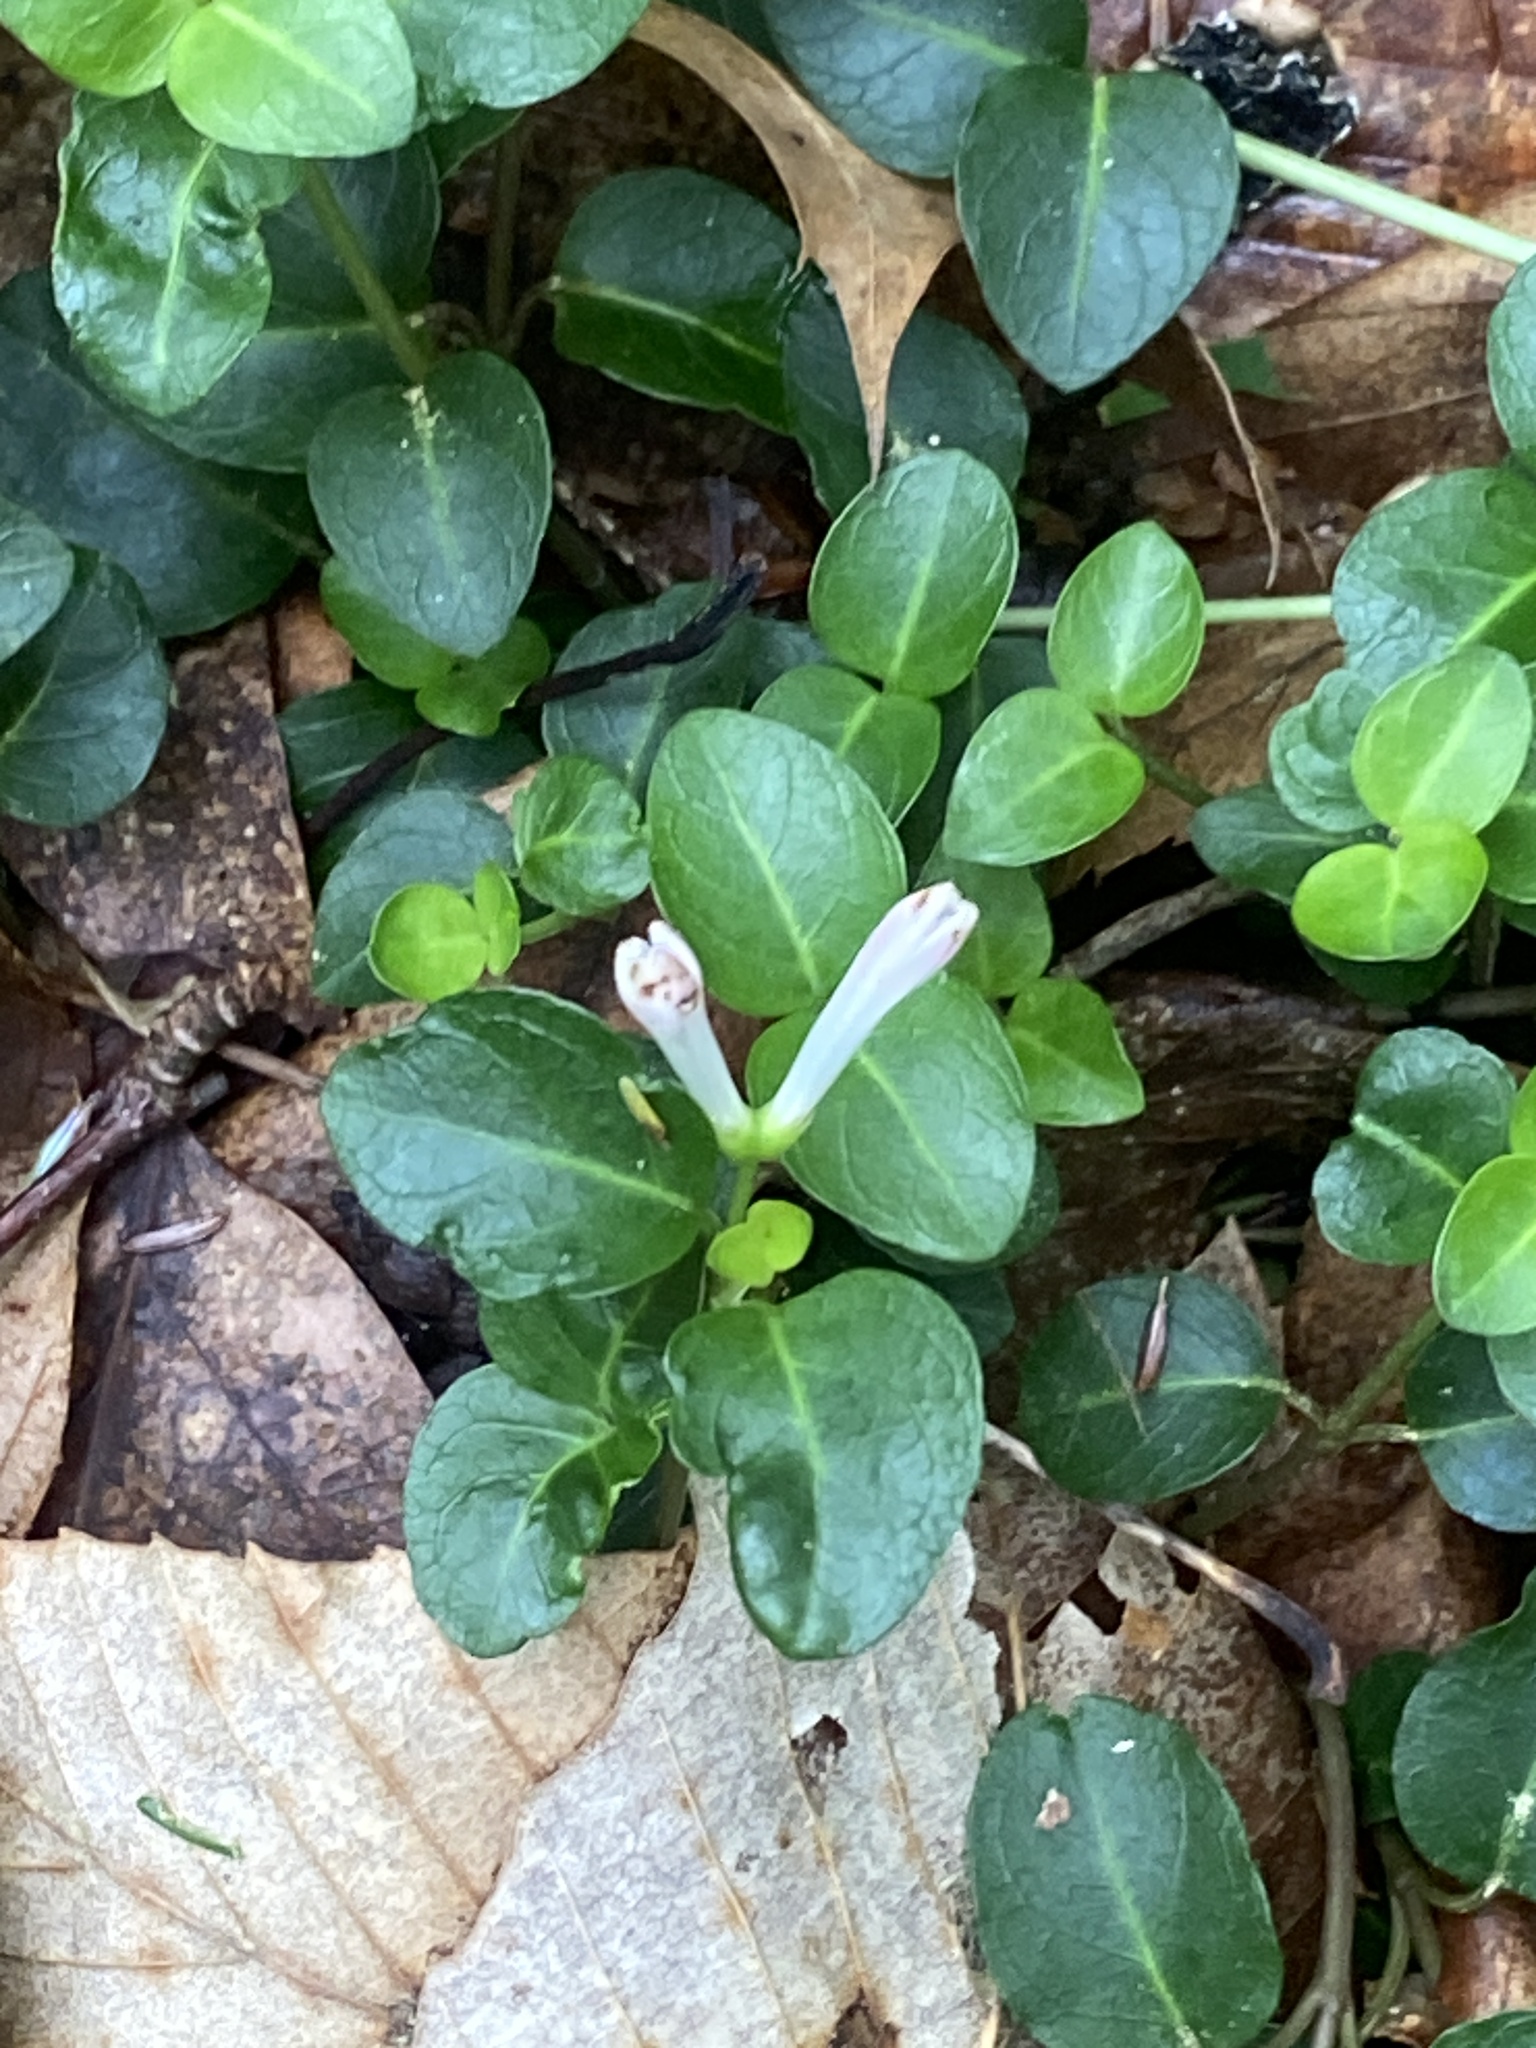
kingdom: Plantae
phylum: Tracheophyta
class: Magnoliopsida
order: Gentianales
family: Rubiaceae
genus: Mitchella
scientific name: Mitchella repens
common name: Partridge-berry
